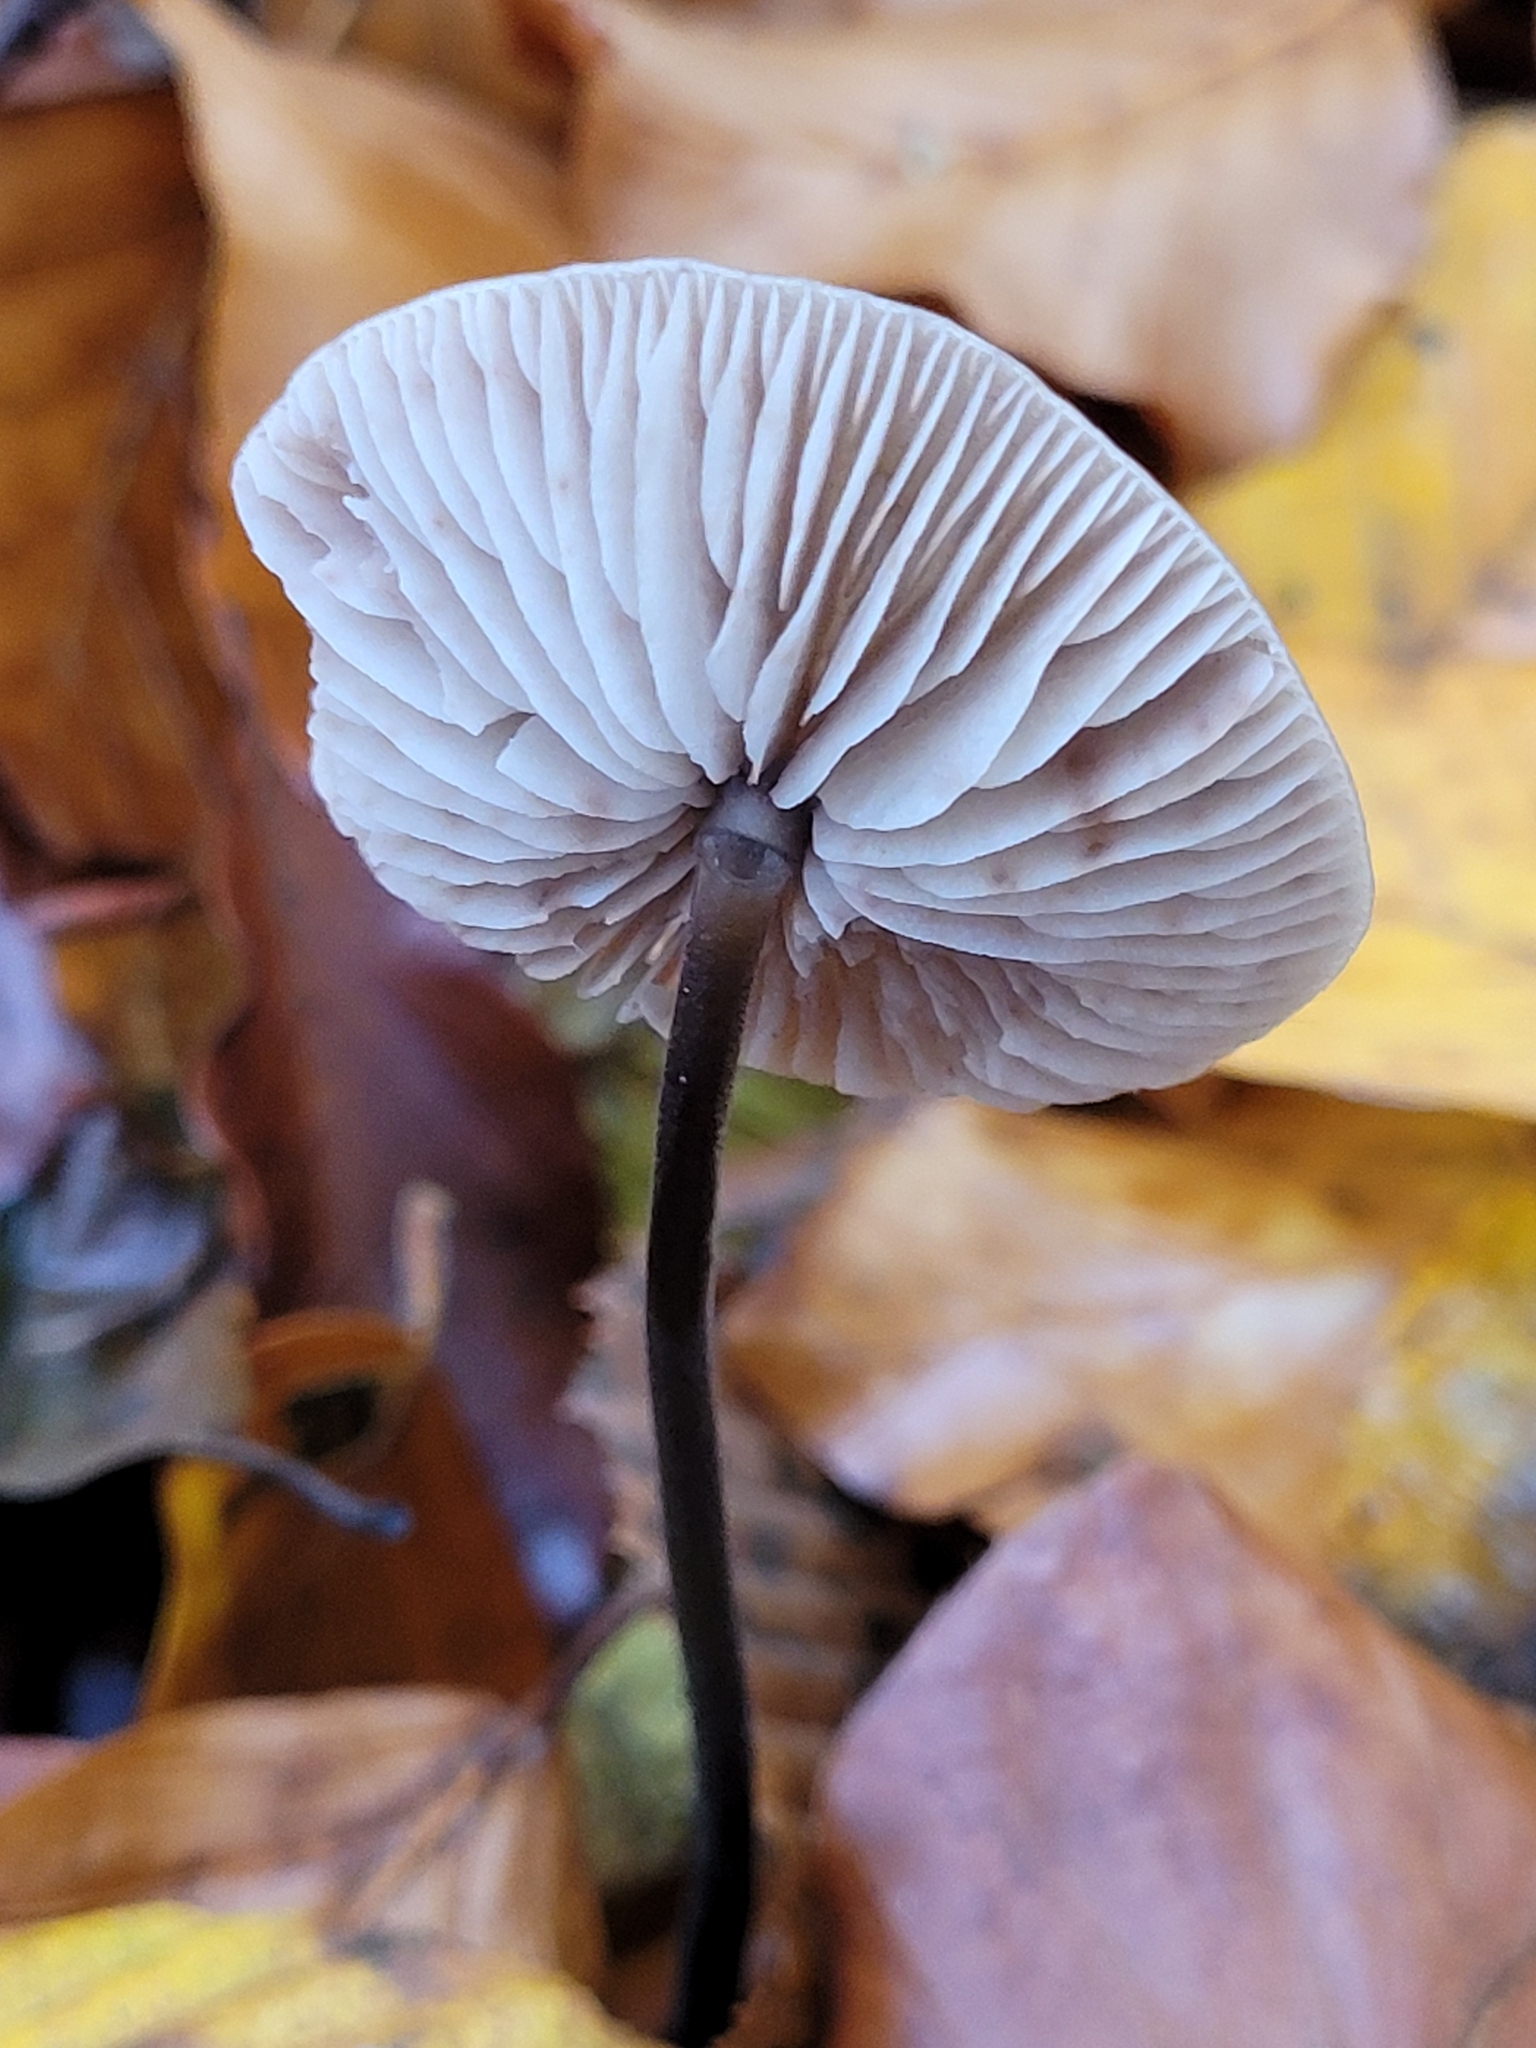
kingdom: Fungi
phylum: Basidiomycota
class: Agaricomycetes
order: Agaricales
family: Omphalotaceae
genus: Mycetinis
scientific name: Mycetinis alliaceus
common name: Garlic parachute
